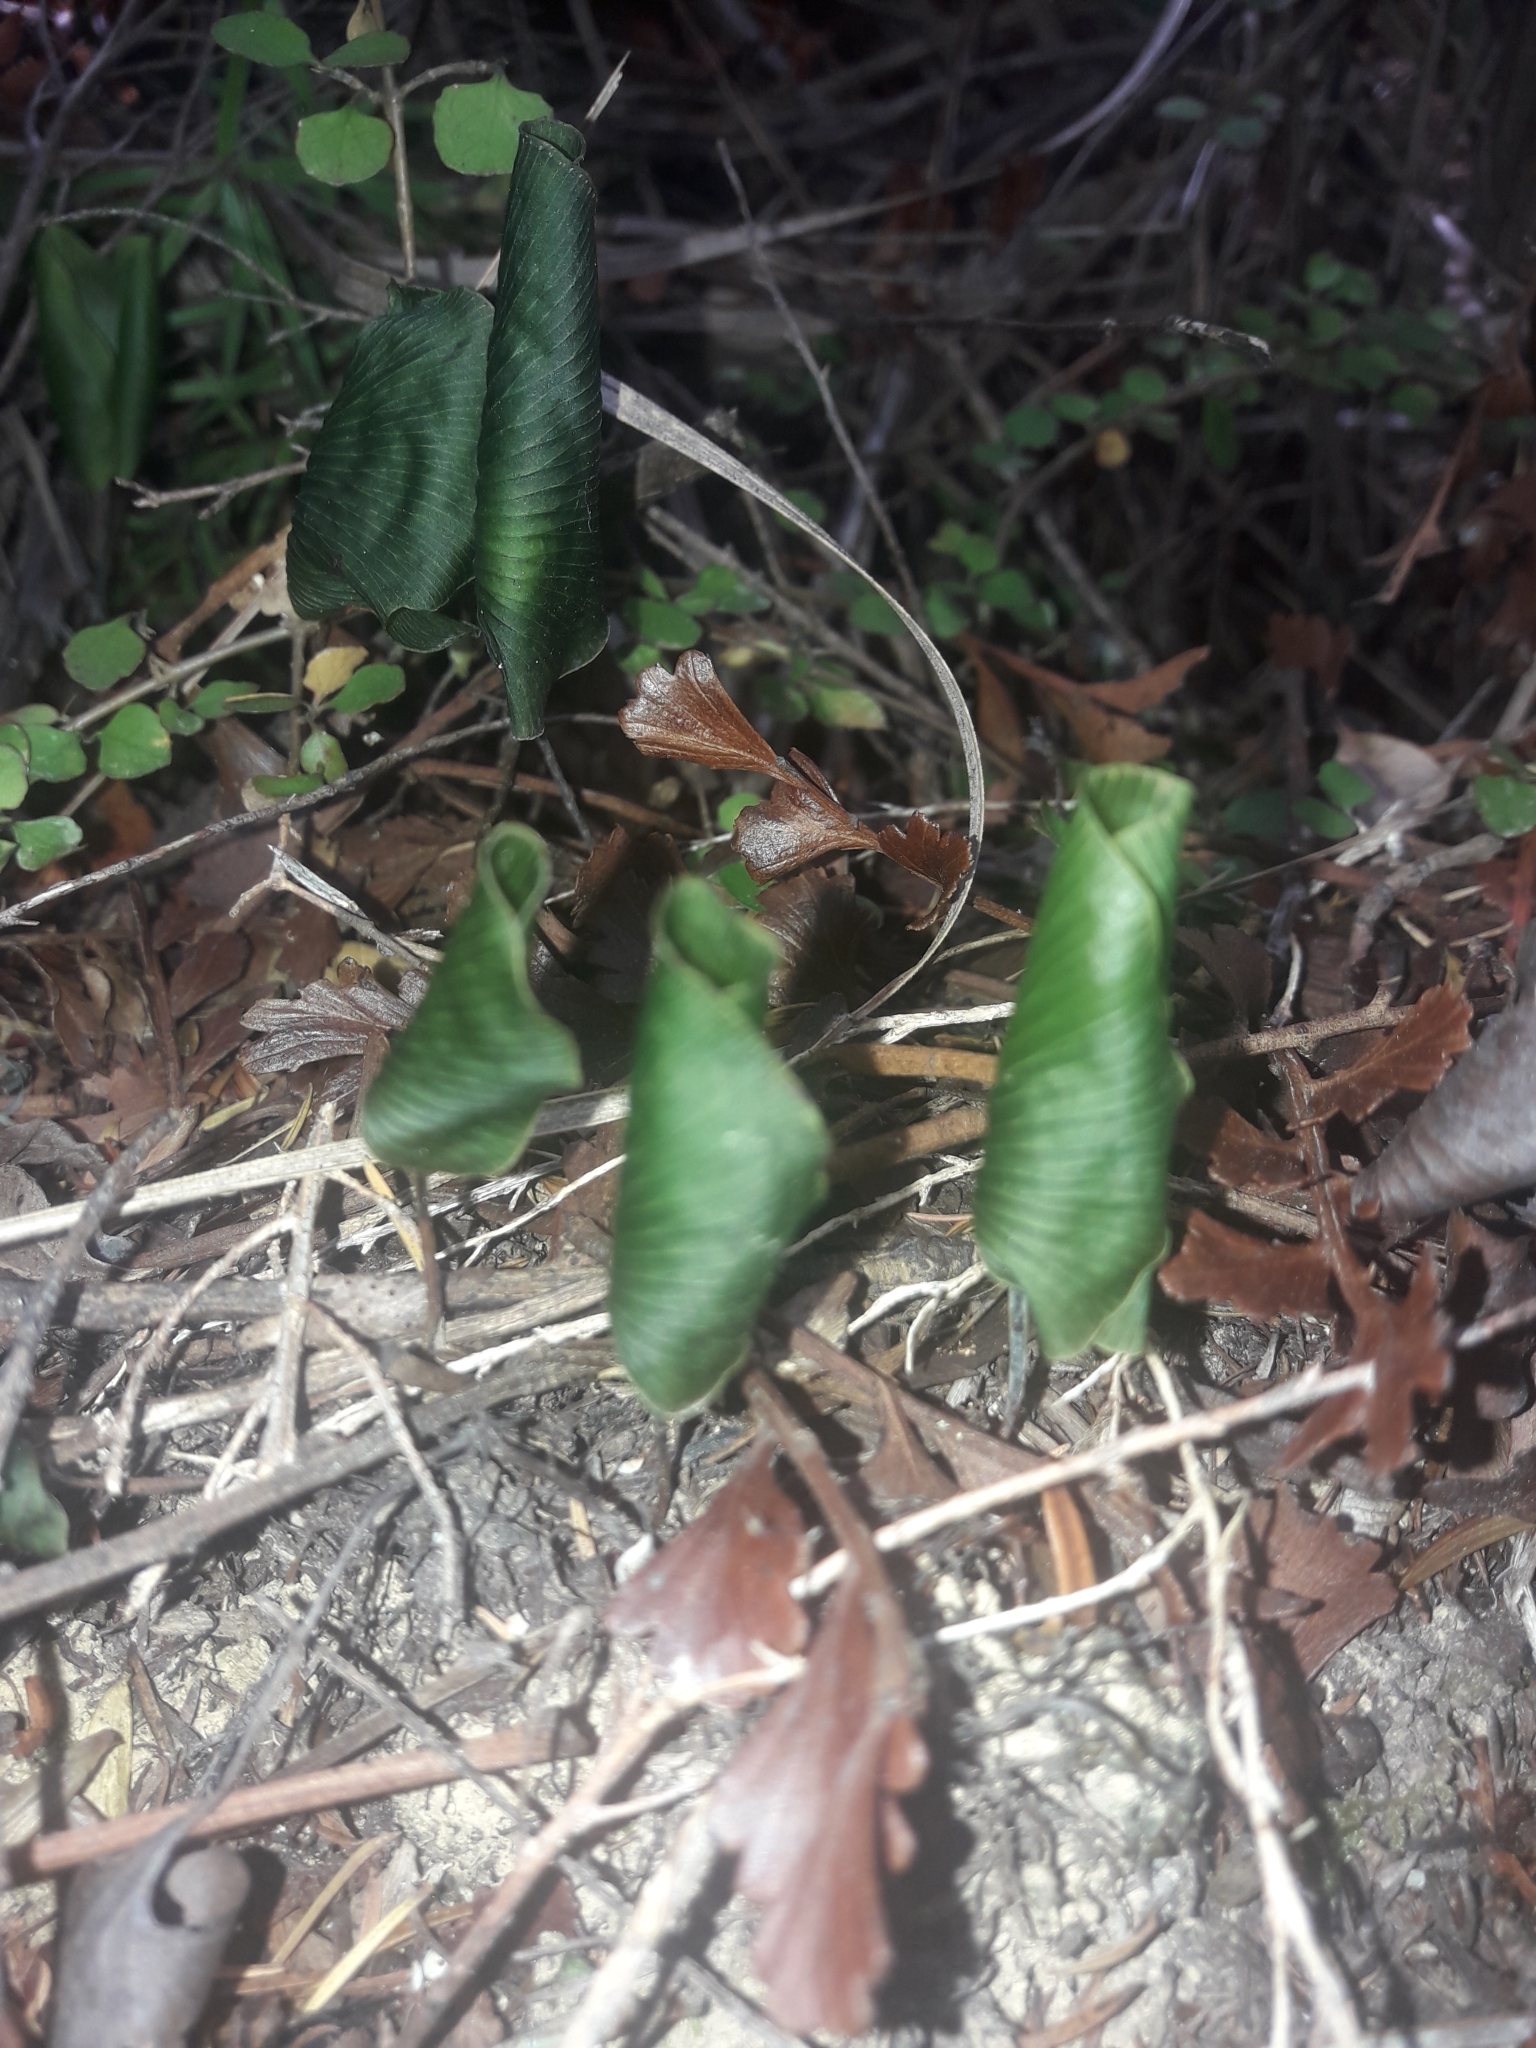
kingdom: Plantae
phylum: Tracheophyta
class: Polypodiopsida
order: Hymenophyllales
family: Hymenophyllaceae
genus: Hymenophyllum
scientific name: Hymenophyllum nephrophyllum
